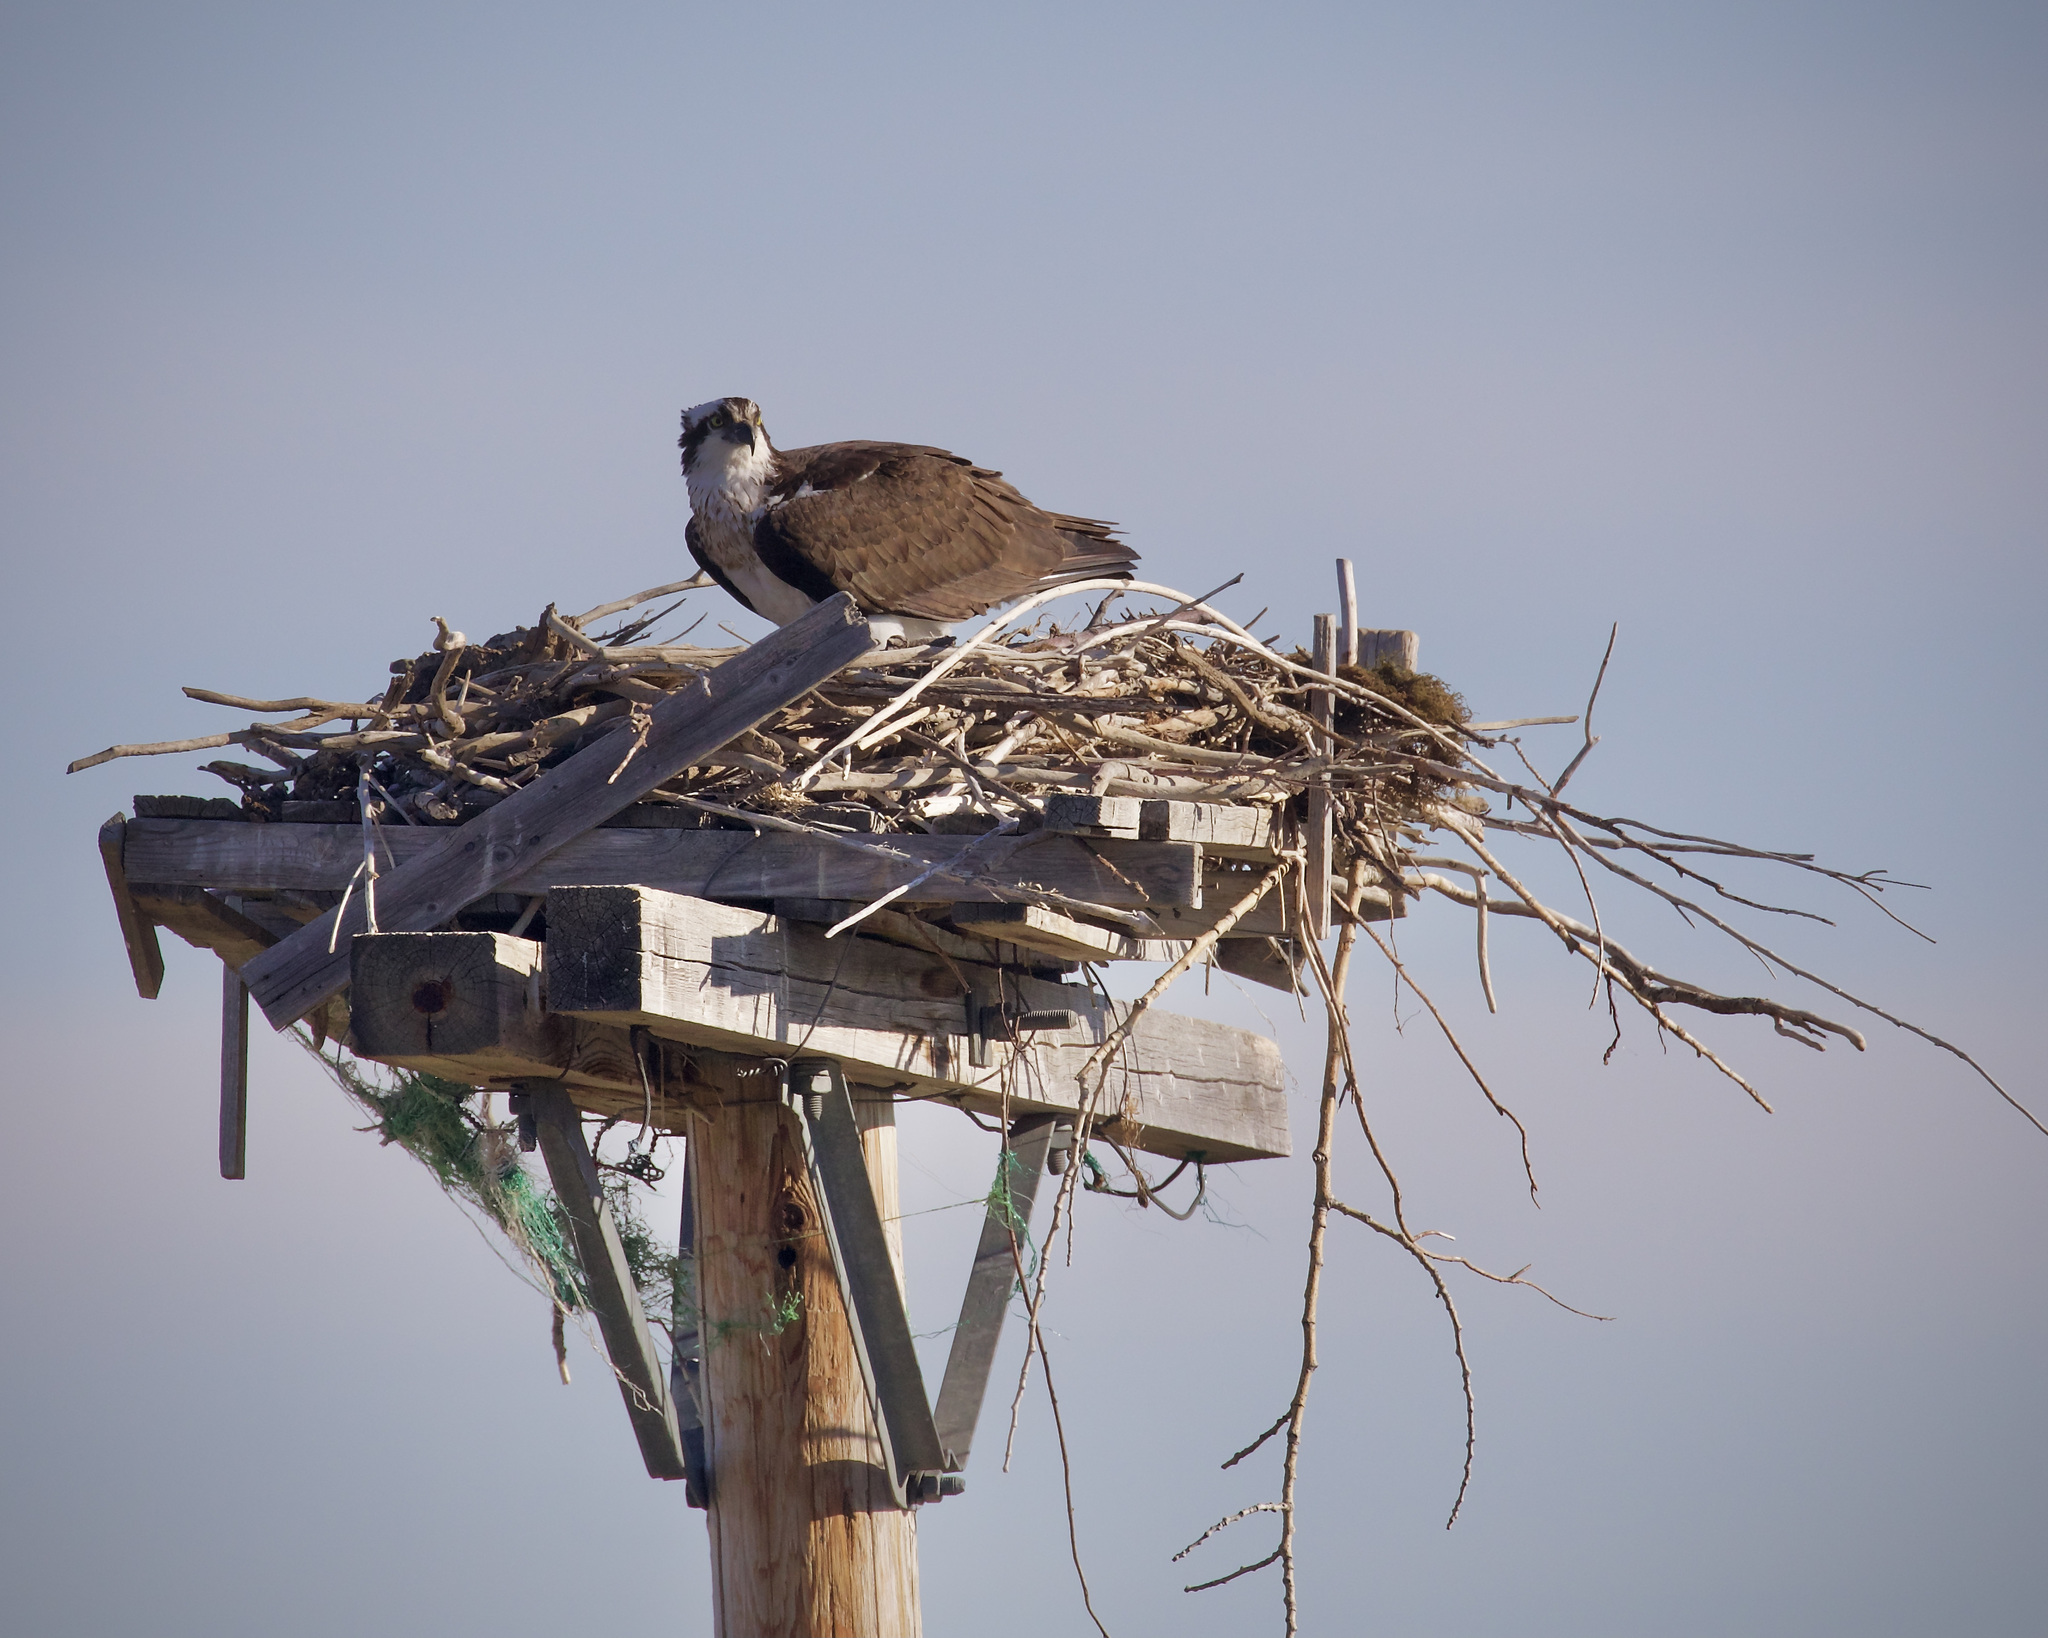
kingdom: Animalia
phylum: Chordata
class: Aves
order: Accipitriformes
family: Pandionidae
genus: Pandion
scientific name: Pandion haliaetus
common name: Osprey
